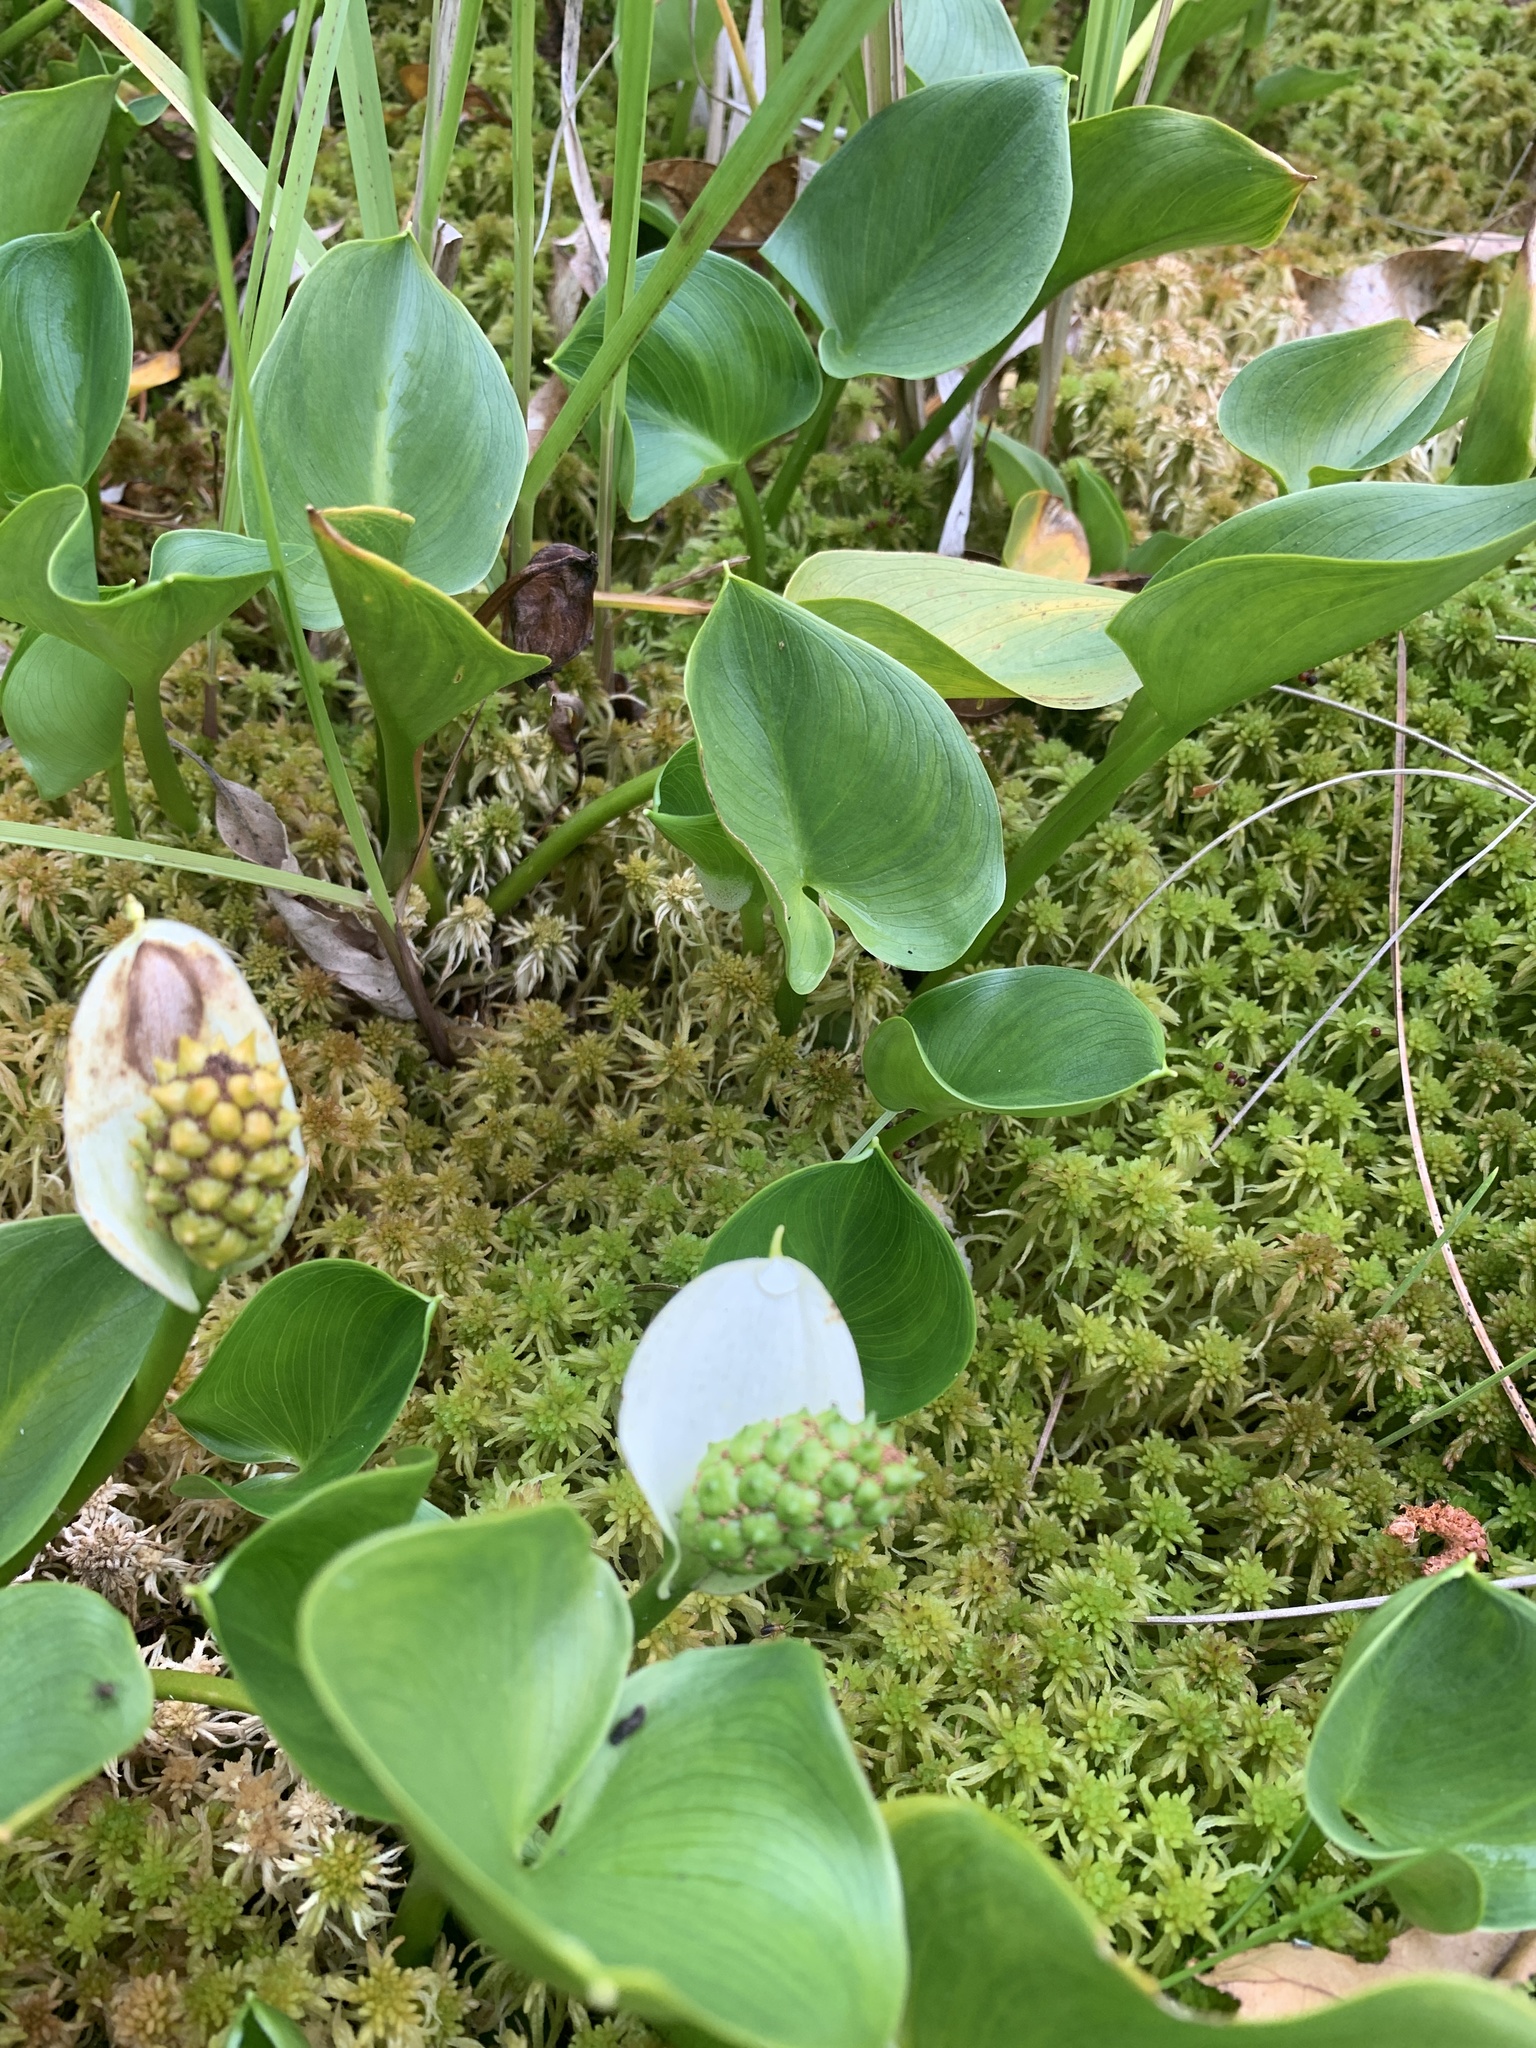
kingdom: Plantae
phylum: Tracheophyta
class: Liliopsida
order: Alismatales
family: Araceae
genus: Calla
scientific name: Calla palustris
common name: Bog arum
